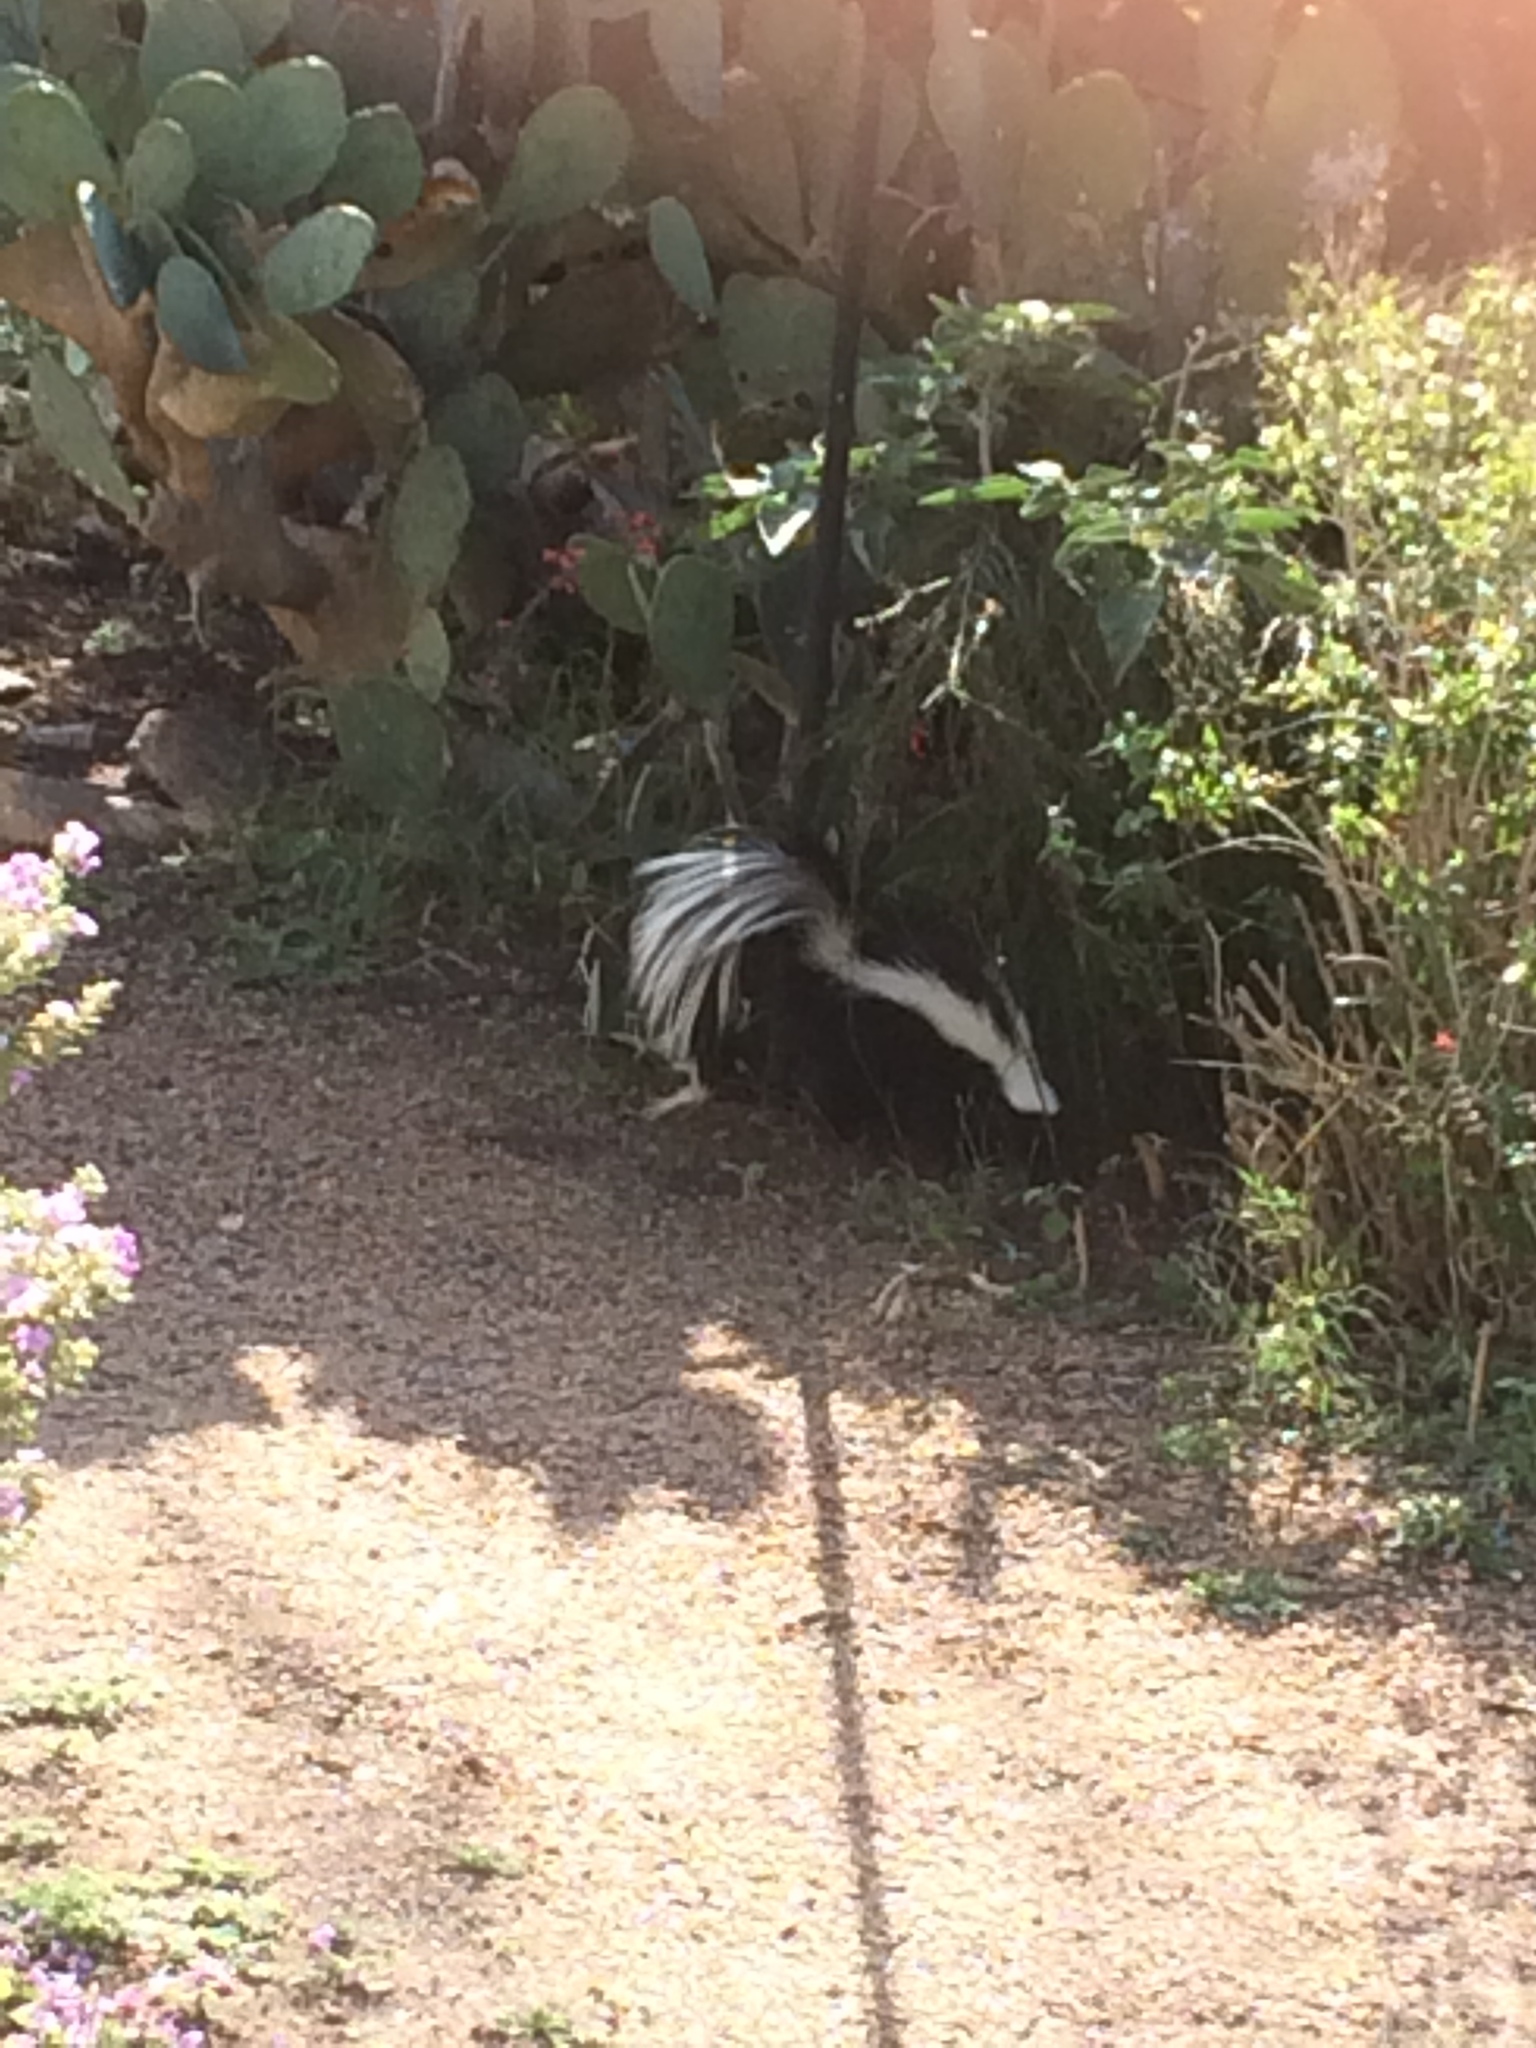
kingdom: Animalia
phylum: Chordata
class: Mammalia
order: Carnivora
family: Mephitidae
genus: Mephitis
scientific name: Mephitis mephitis
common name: Striped skunk
